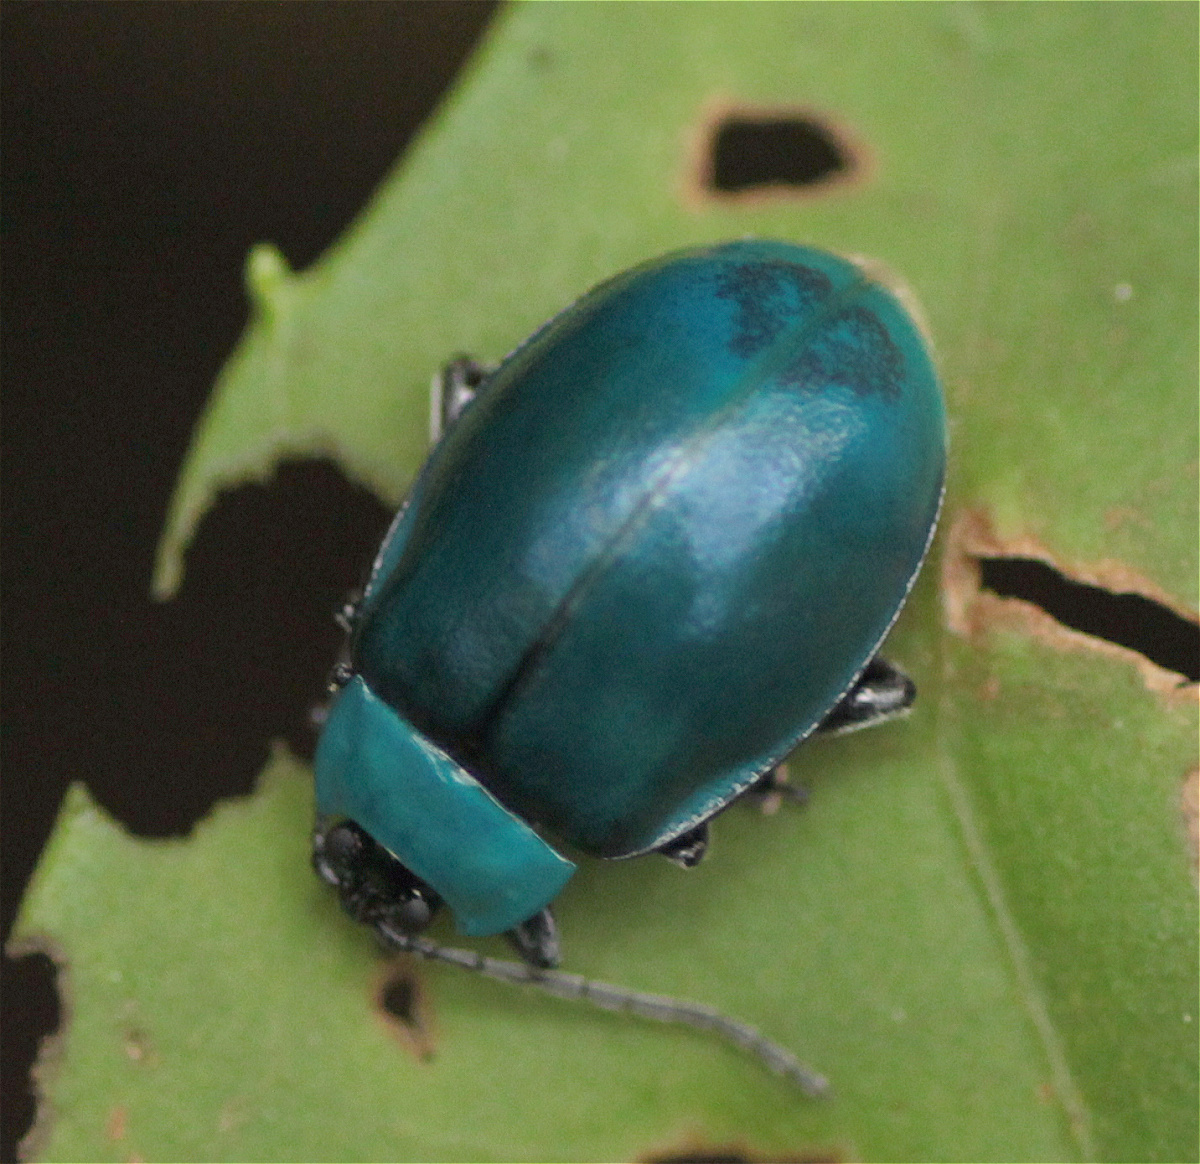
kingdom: Animalia
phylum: Arthropoda
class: Insecta
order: Coleoptera
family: Chrysomelidae
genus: Aspicela
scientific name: Aspicela
